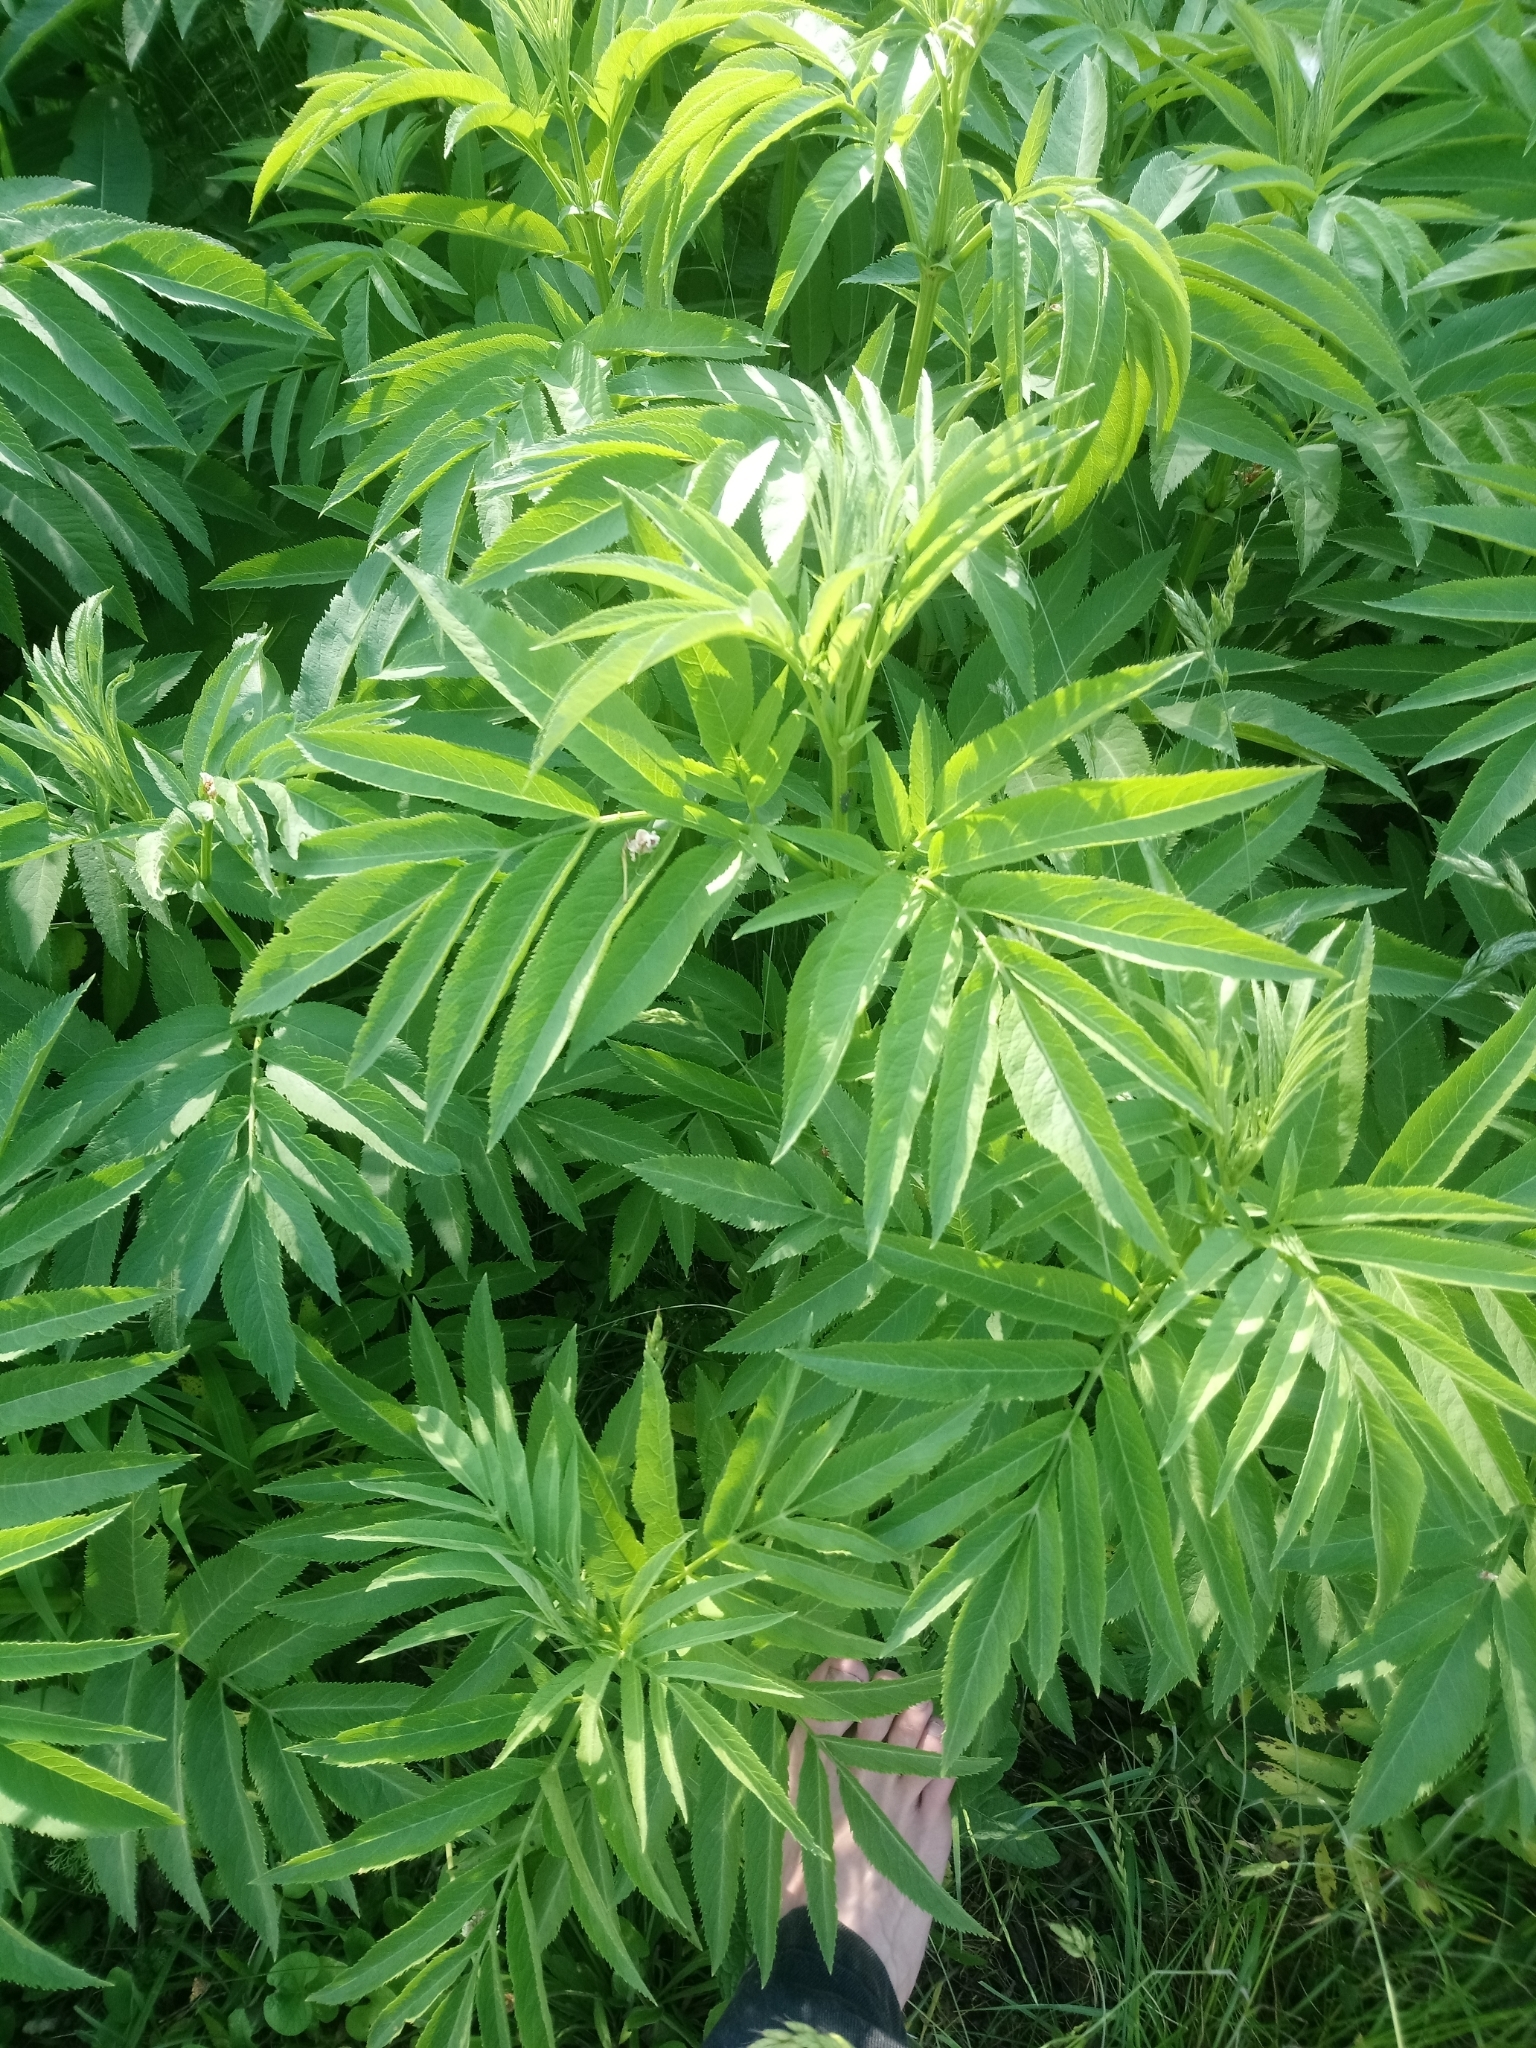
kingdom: Plantae
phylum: Tracheophyta
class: Magnoliopsida
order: Dipsacales
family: Viburnaceae
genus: Sambucus
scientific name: Sambucus ebulus
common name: Dwarf elder
